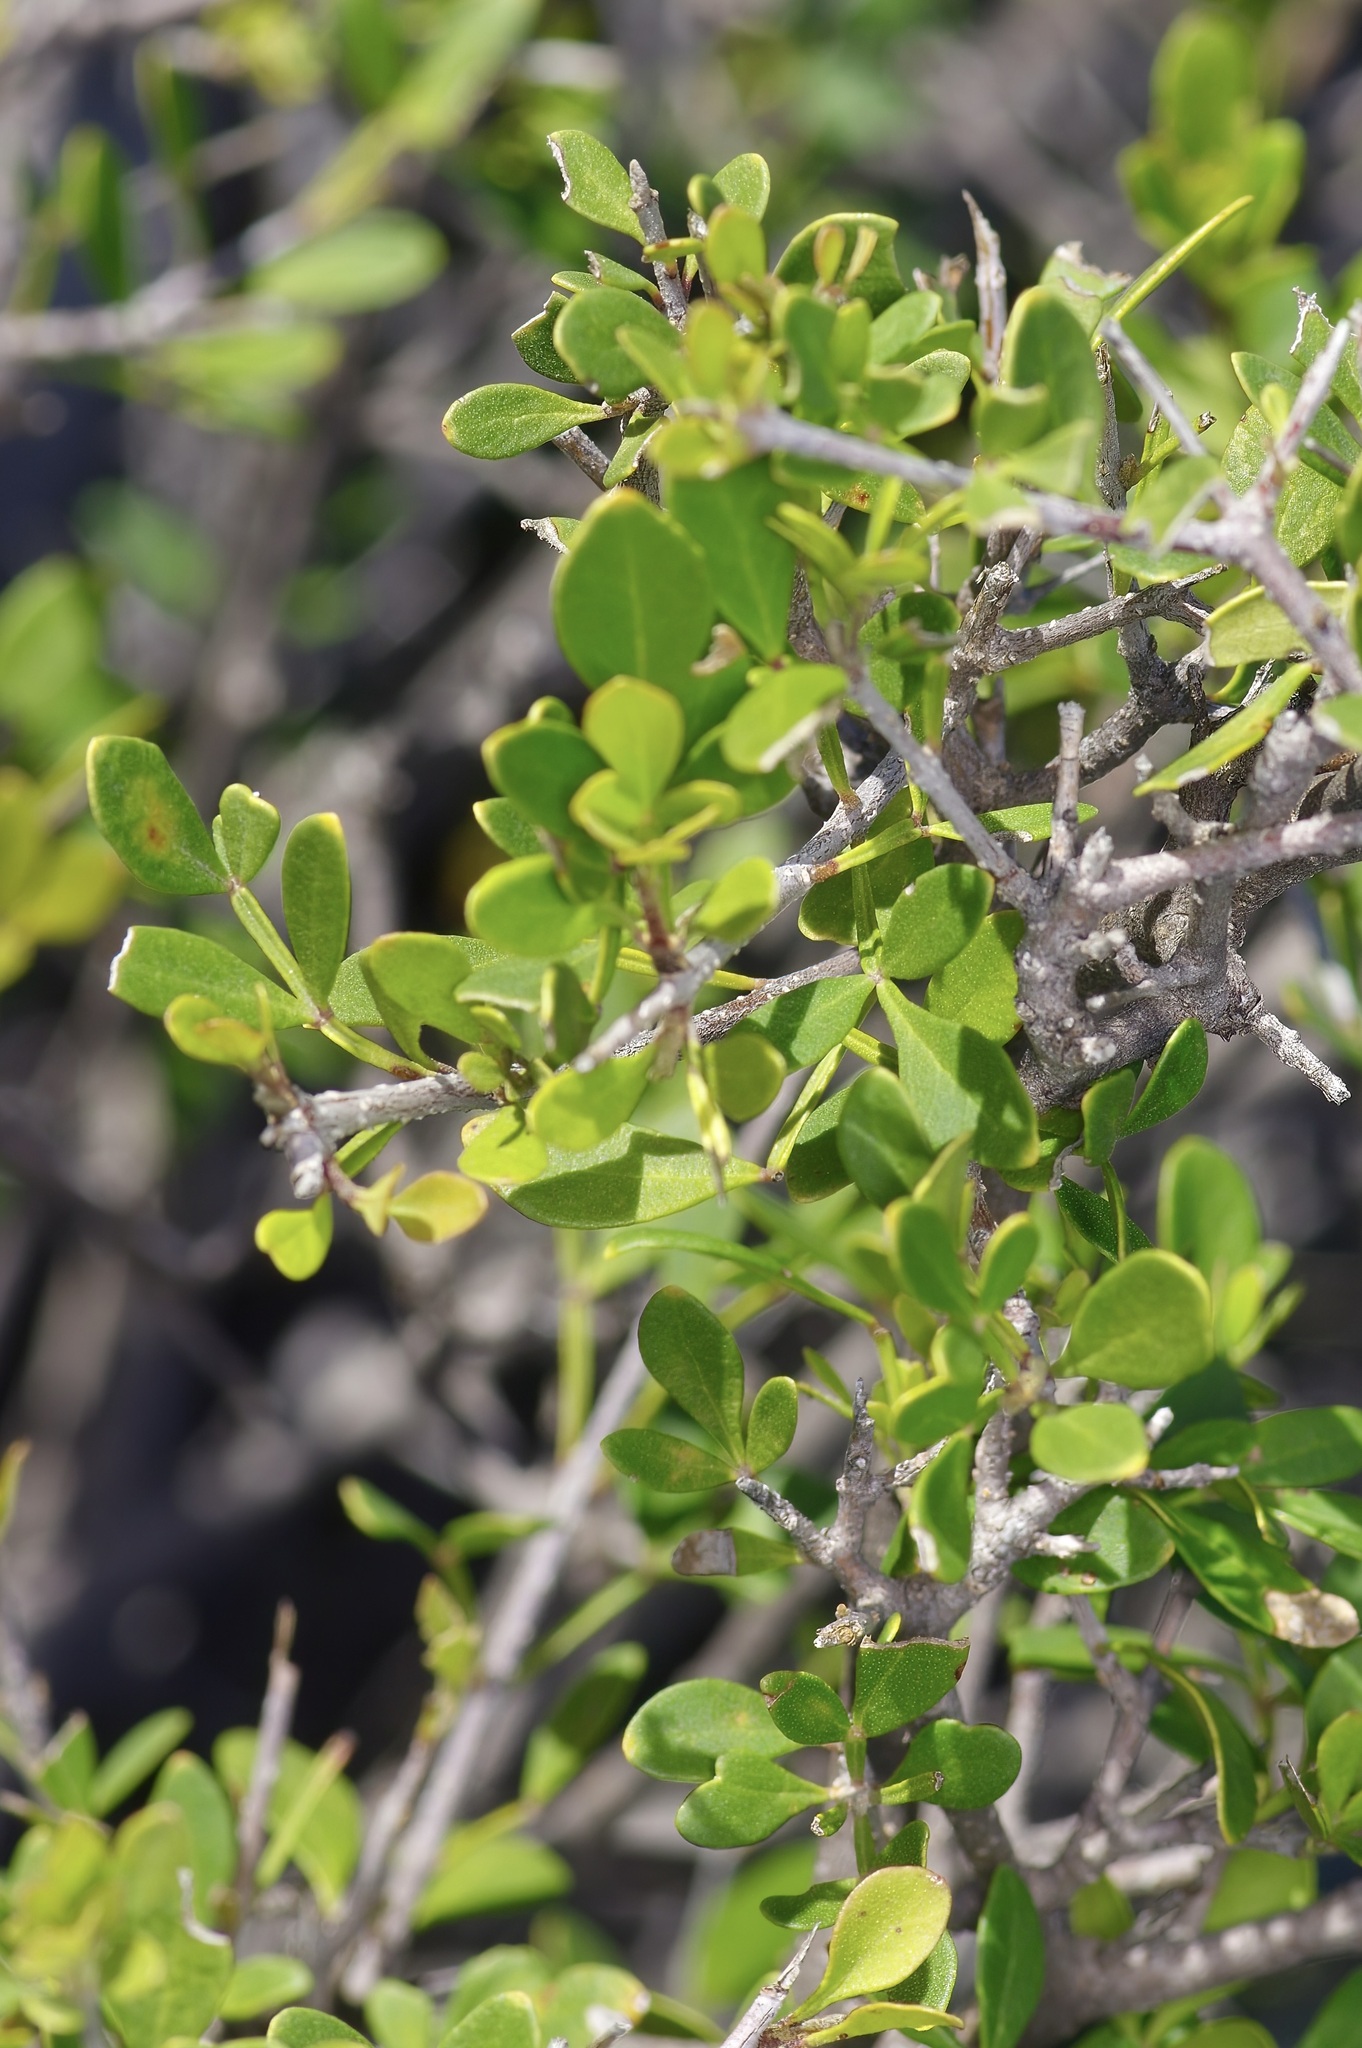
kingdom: Plantae
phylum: Tracheophyta
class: Magnoliopsida
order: Lamiales
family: Oleaceae
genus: Fraxinus
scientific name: Fraxinus greggii
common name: Gregg ash
